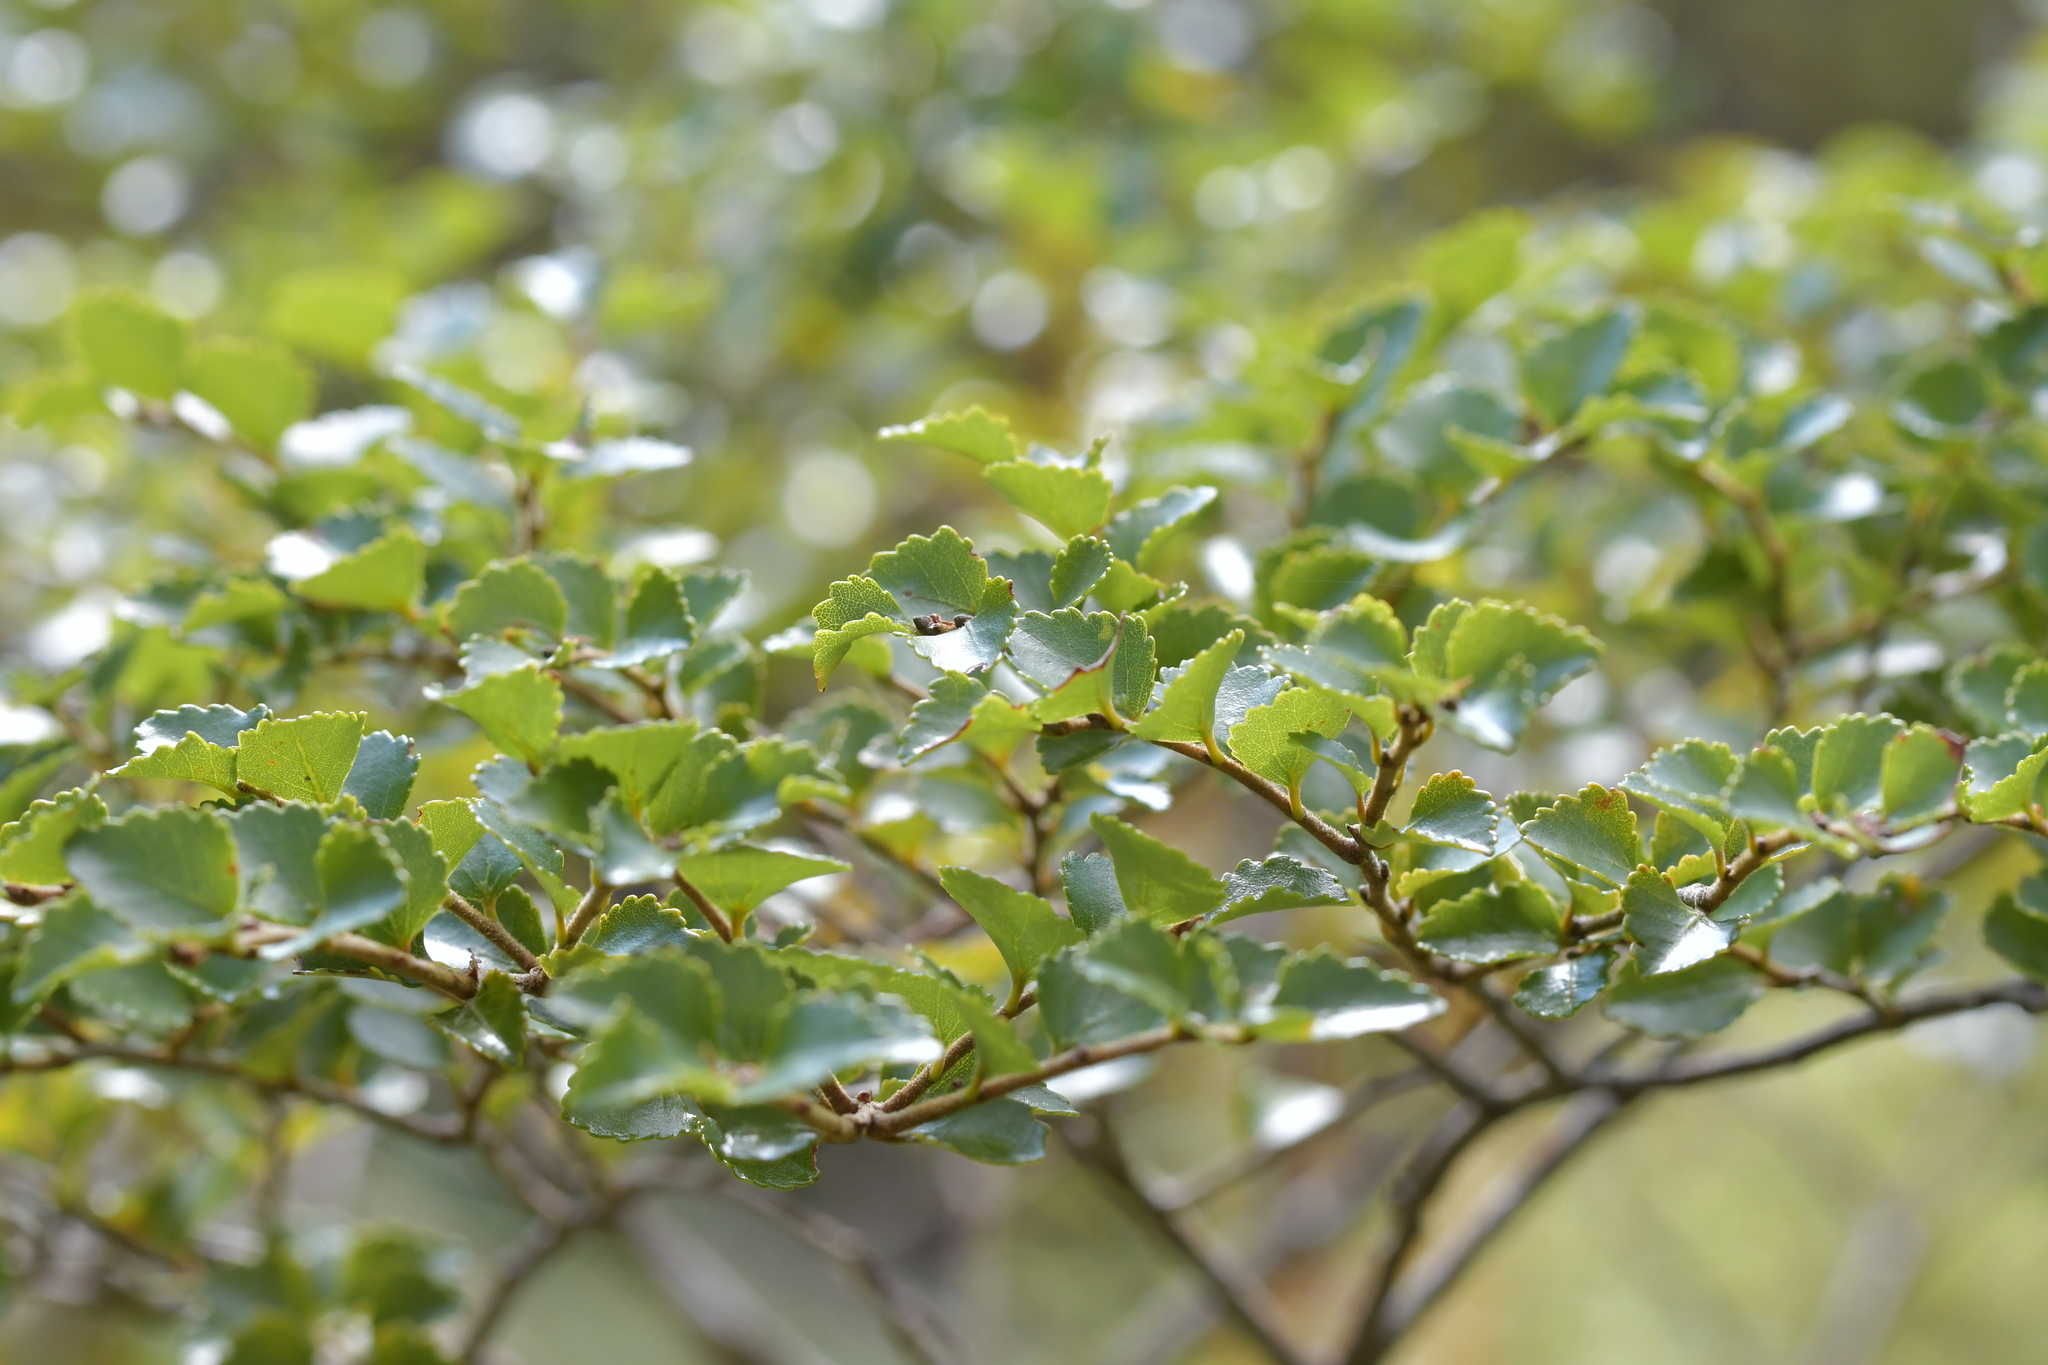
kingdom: Plantae
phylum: Tracheophyta
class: Magnoliopsida
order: Fagales
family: Nothofagaceae
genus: Nothofagus
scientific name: Nothofagus menziesii
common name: Silver beech
